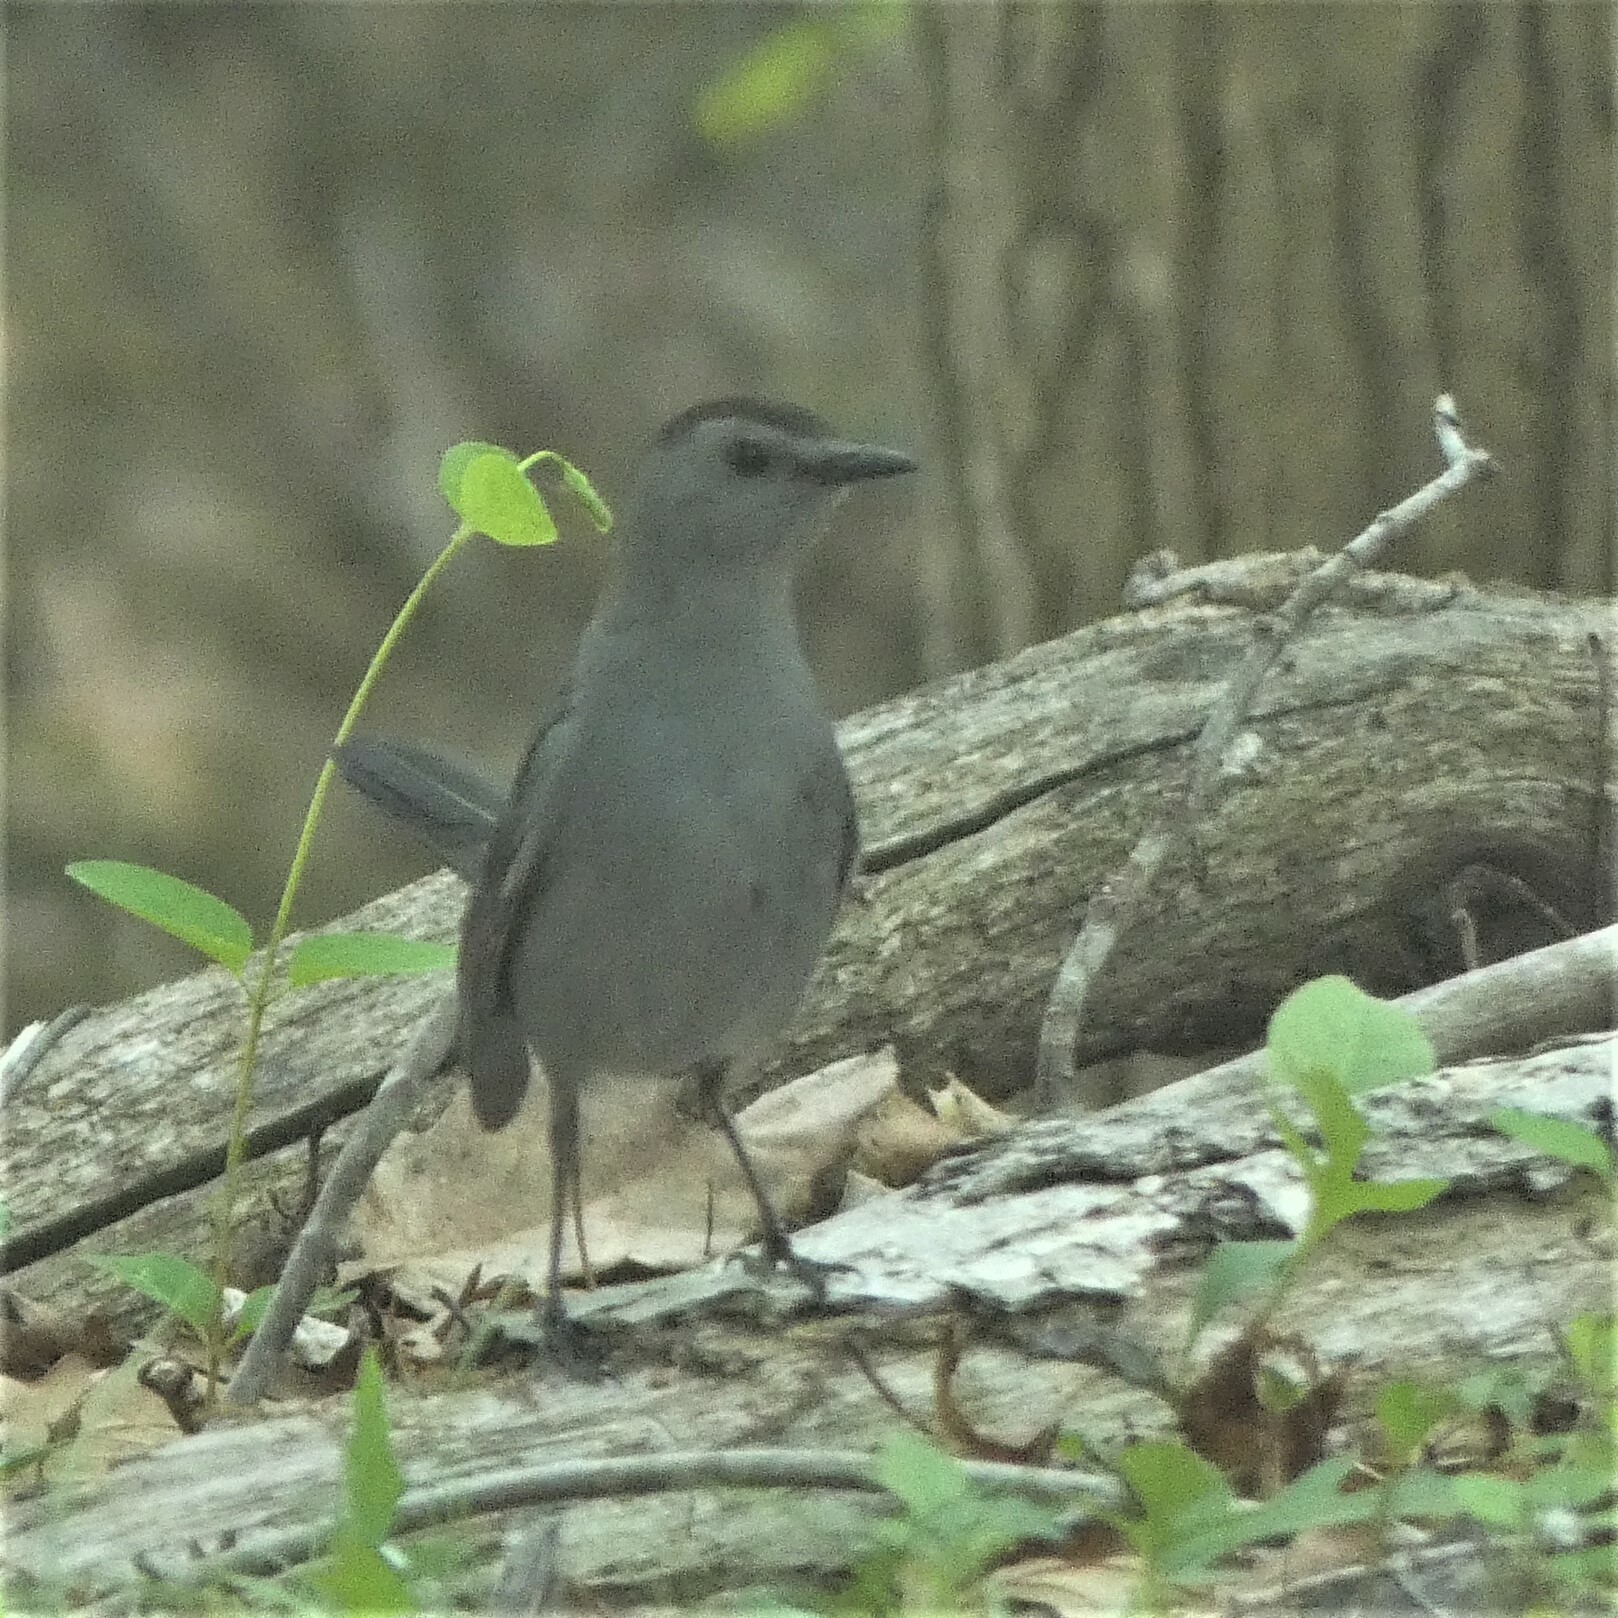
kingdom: Animalia
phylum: Chordata
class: Aves
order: Passeriformes
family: Mimidae
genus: Dumetella
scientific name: Dumetella carolinensis
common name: Gray catbird
